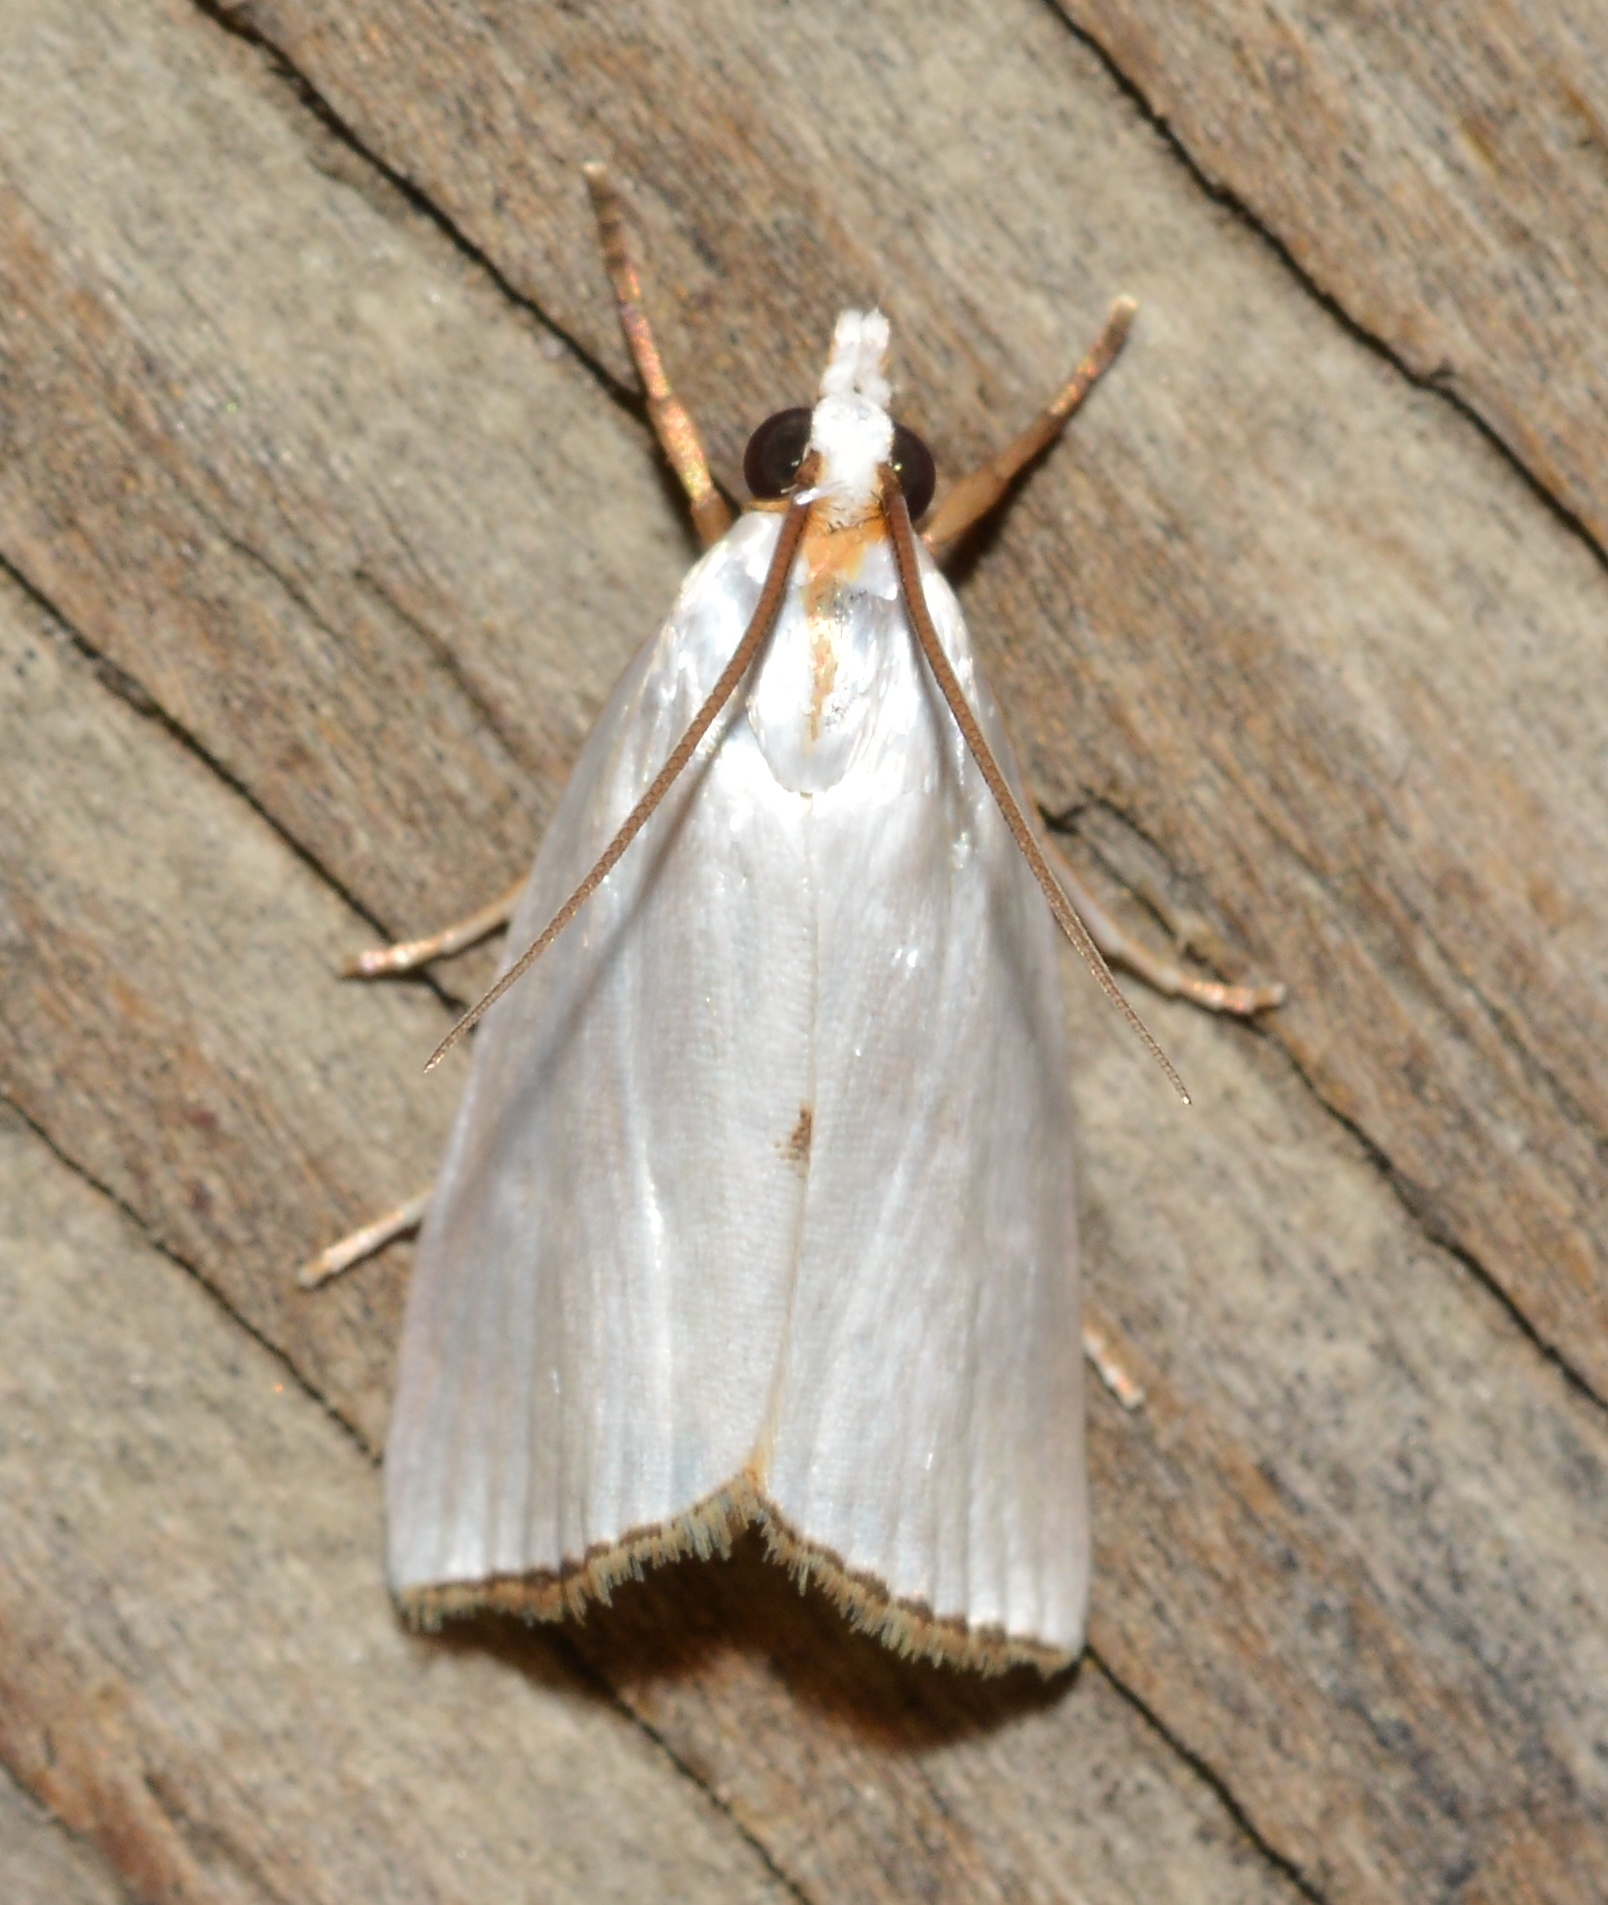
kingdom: Animalia
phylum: Arthropoda
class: Insecta
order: Lepidoptera
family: Crambidae
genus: Argyria
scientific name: Argyria nivalis
